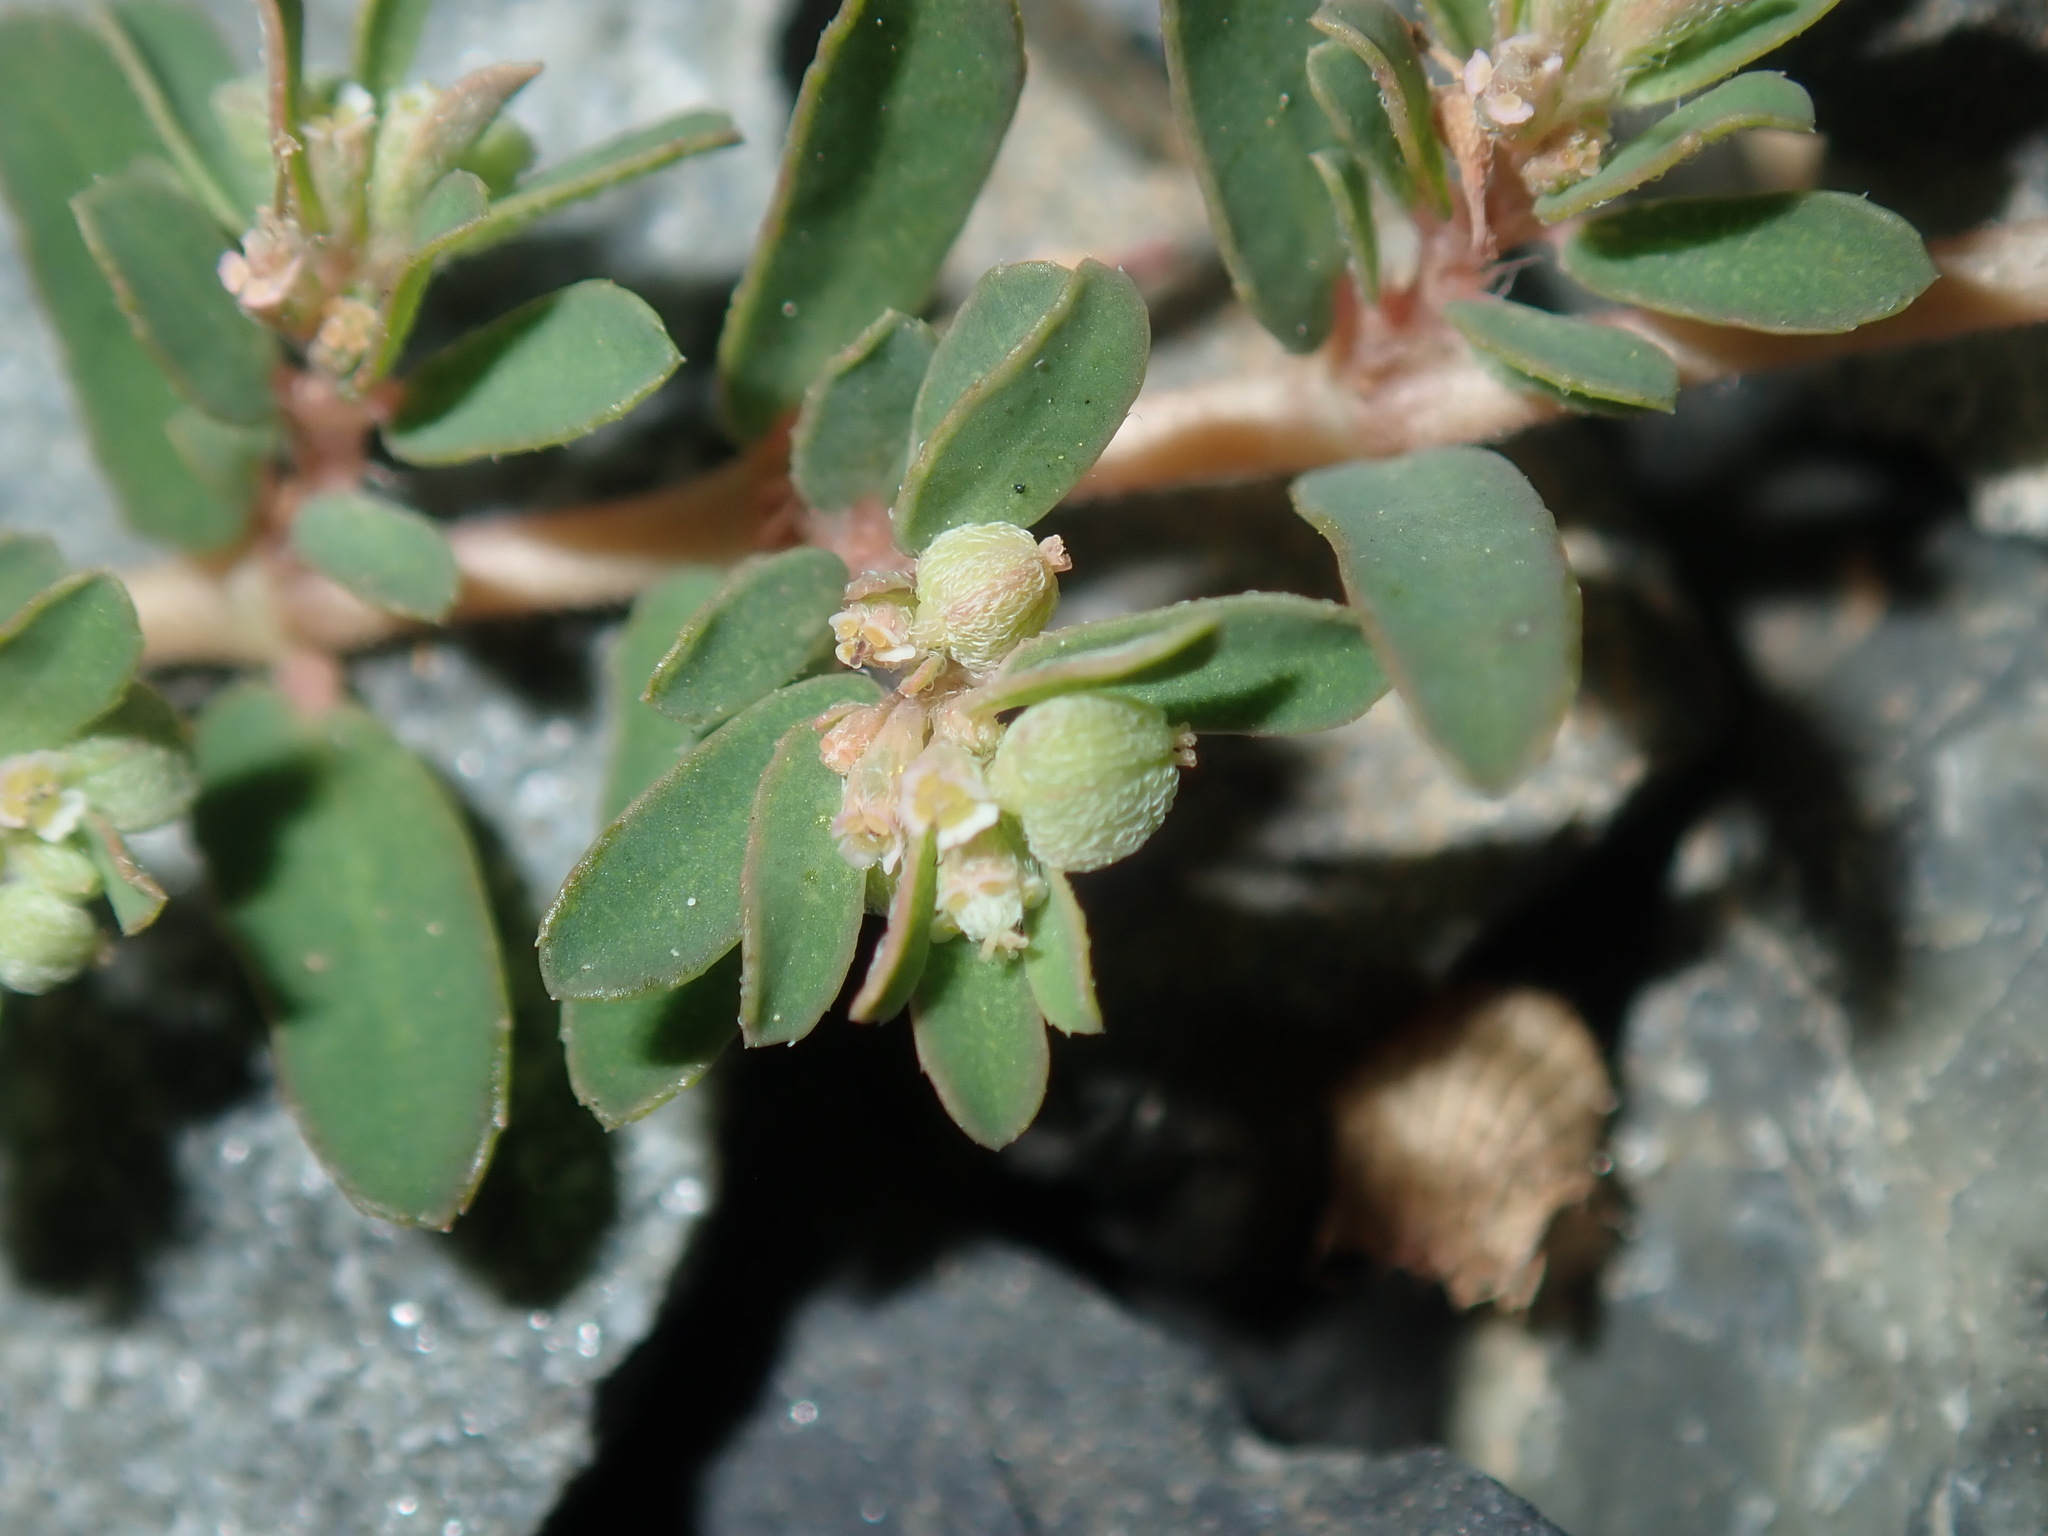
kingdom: Plantae
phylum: Tracheophyta
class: Magnoliopsida
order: Malpighiales
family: Euphorbiaceae
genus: Euphorbia
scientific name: Euphorbia maculata
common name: Spotted spurge
